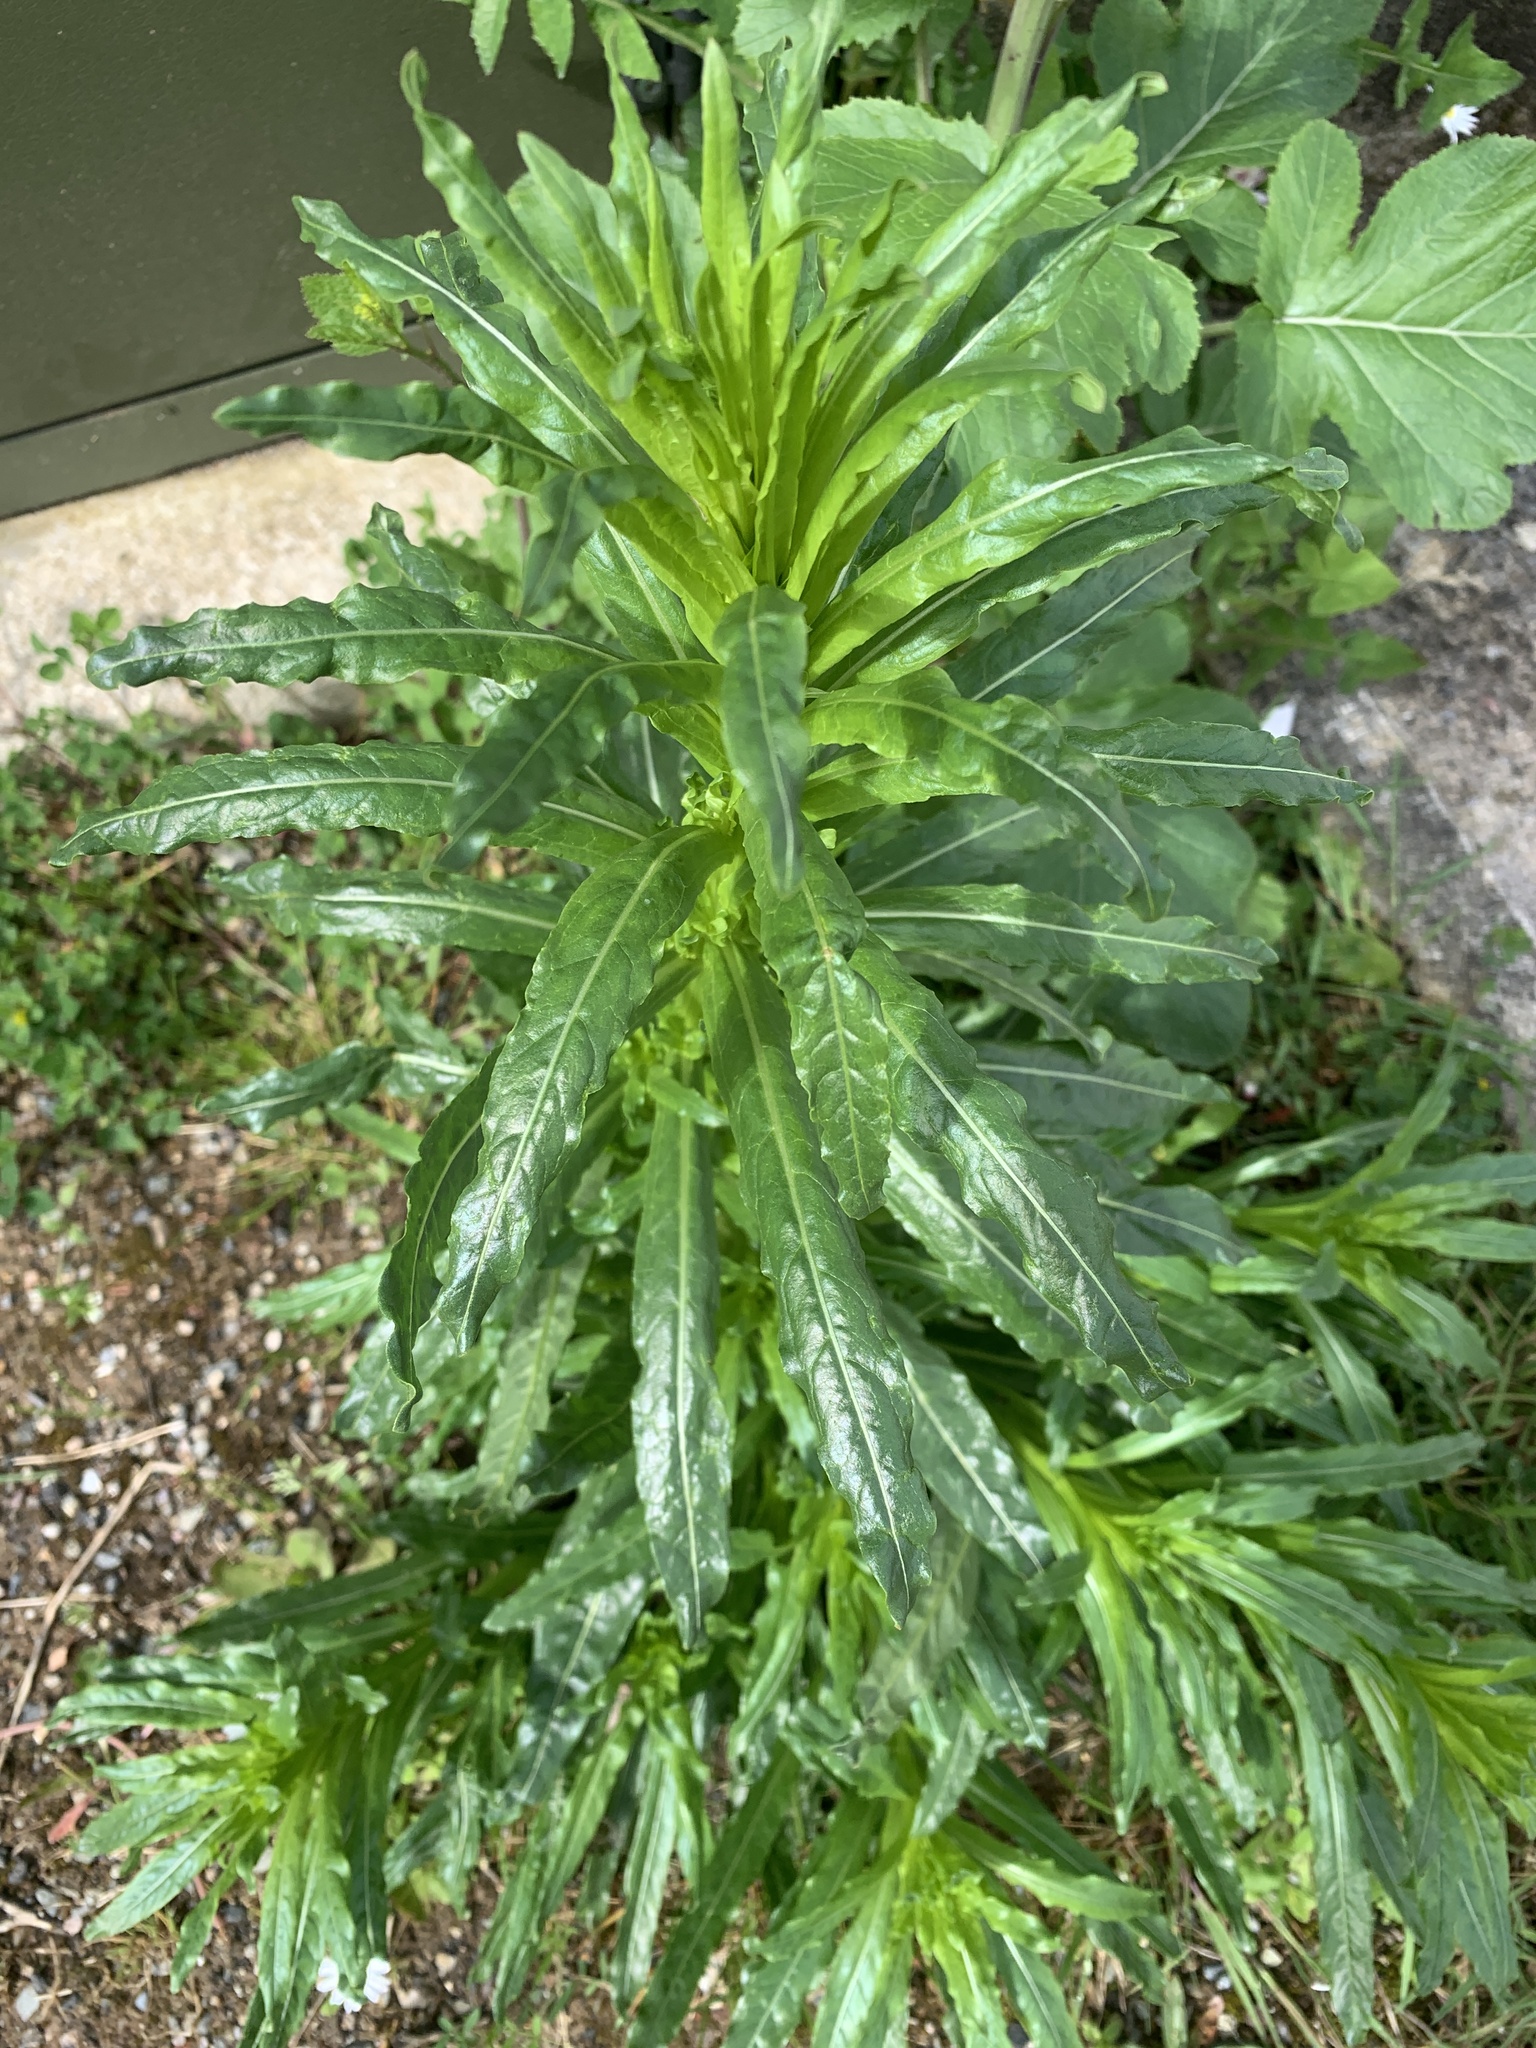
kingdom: Plantae
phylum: Tracheophyta
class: Magnoliopsida
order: Brassicales
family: Resedaceae
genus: Reseda
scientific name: Reseda luteola
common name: Weld
